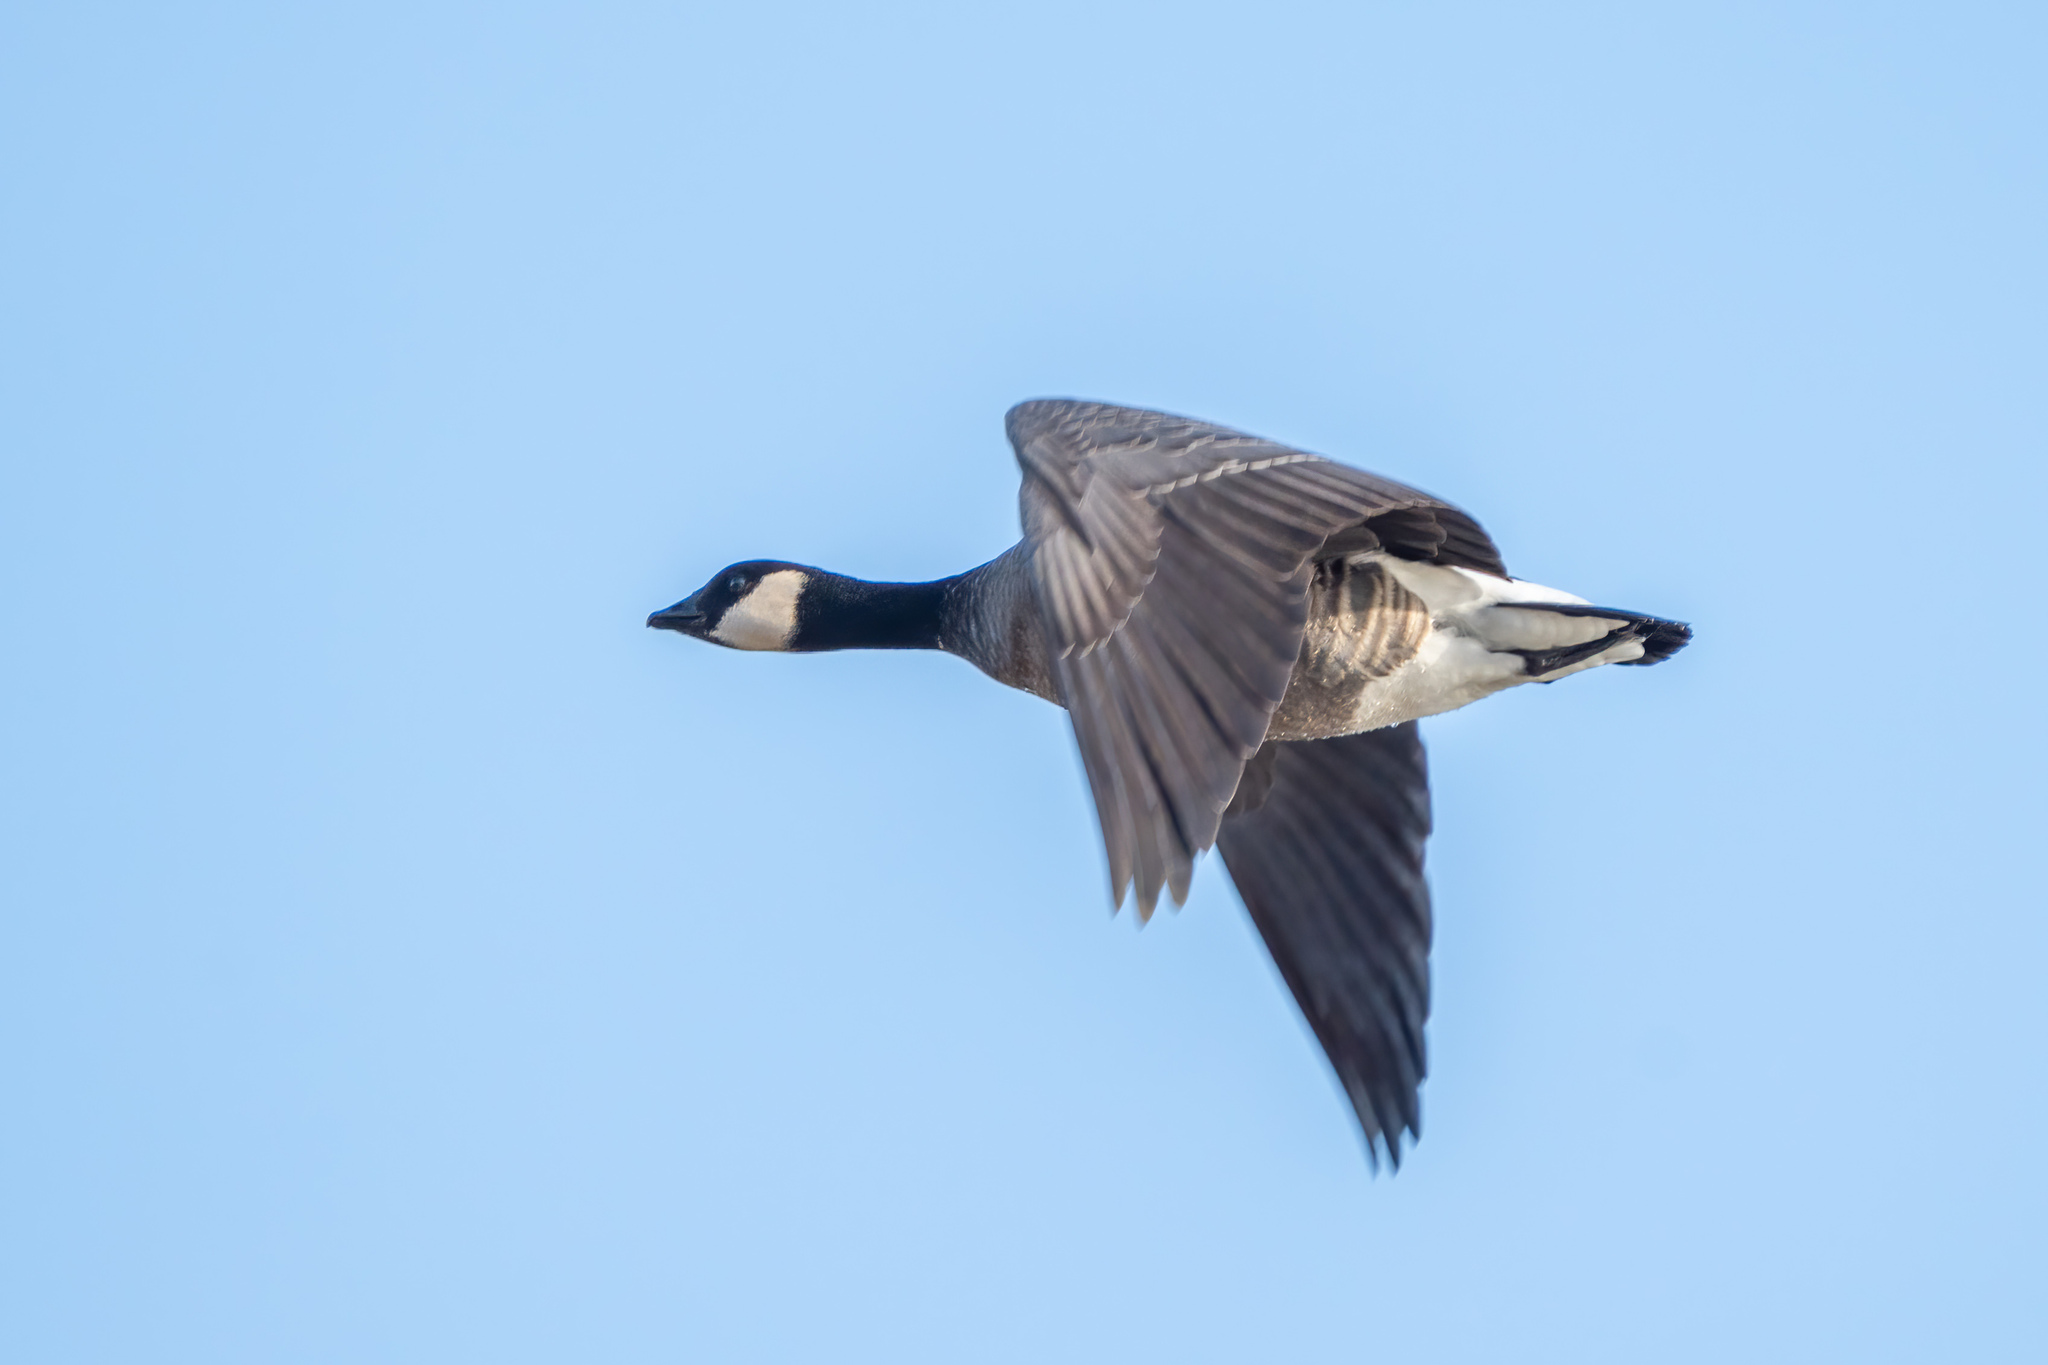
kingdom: Animalia
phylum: Chordata
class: Aves
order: Anseriformes
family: Anatidae
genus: Branta
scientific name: Branta hutchinsii
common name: Cackling goose
